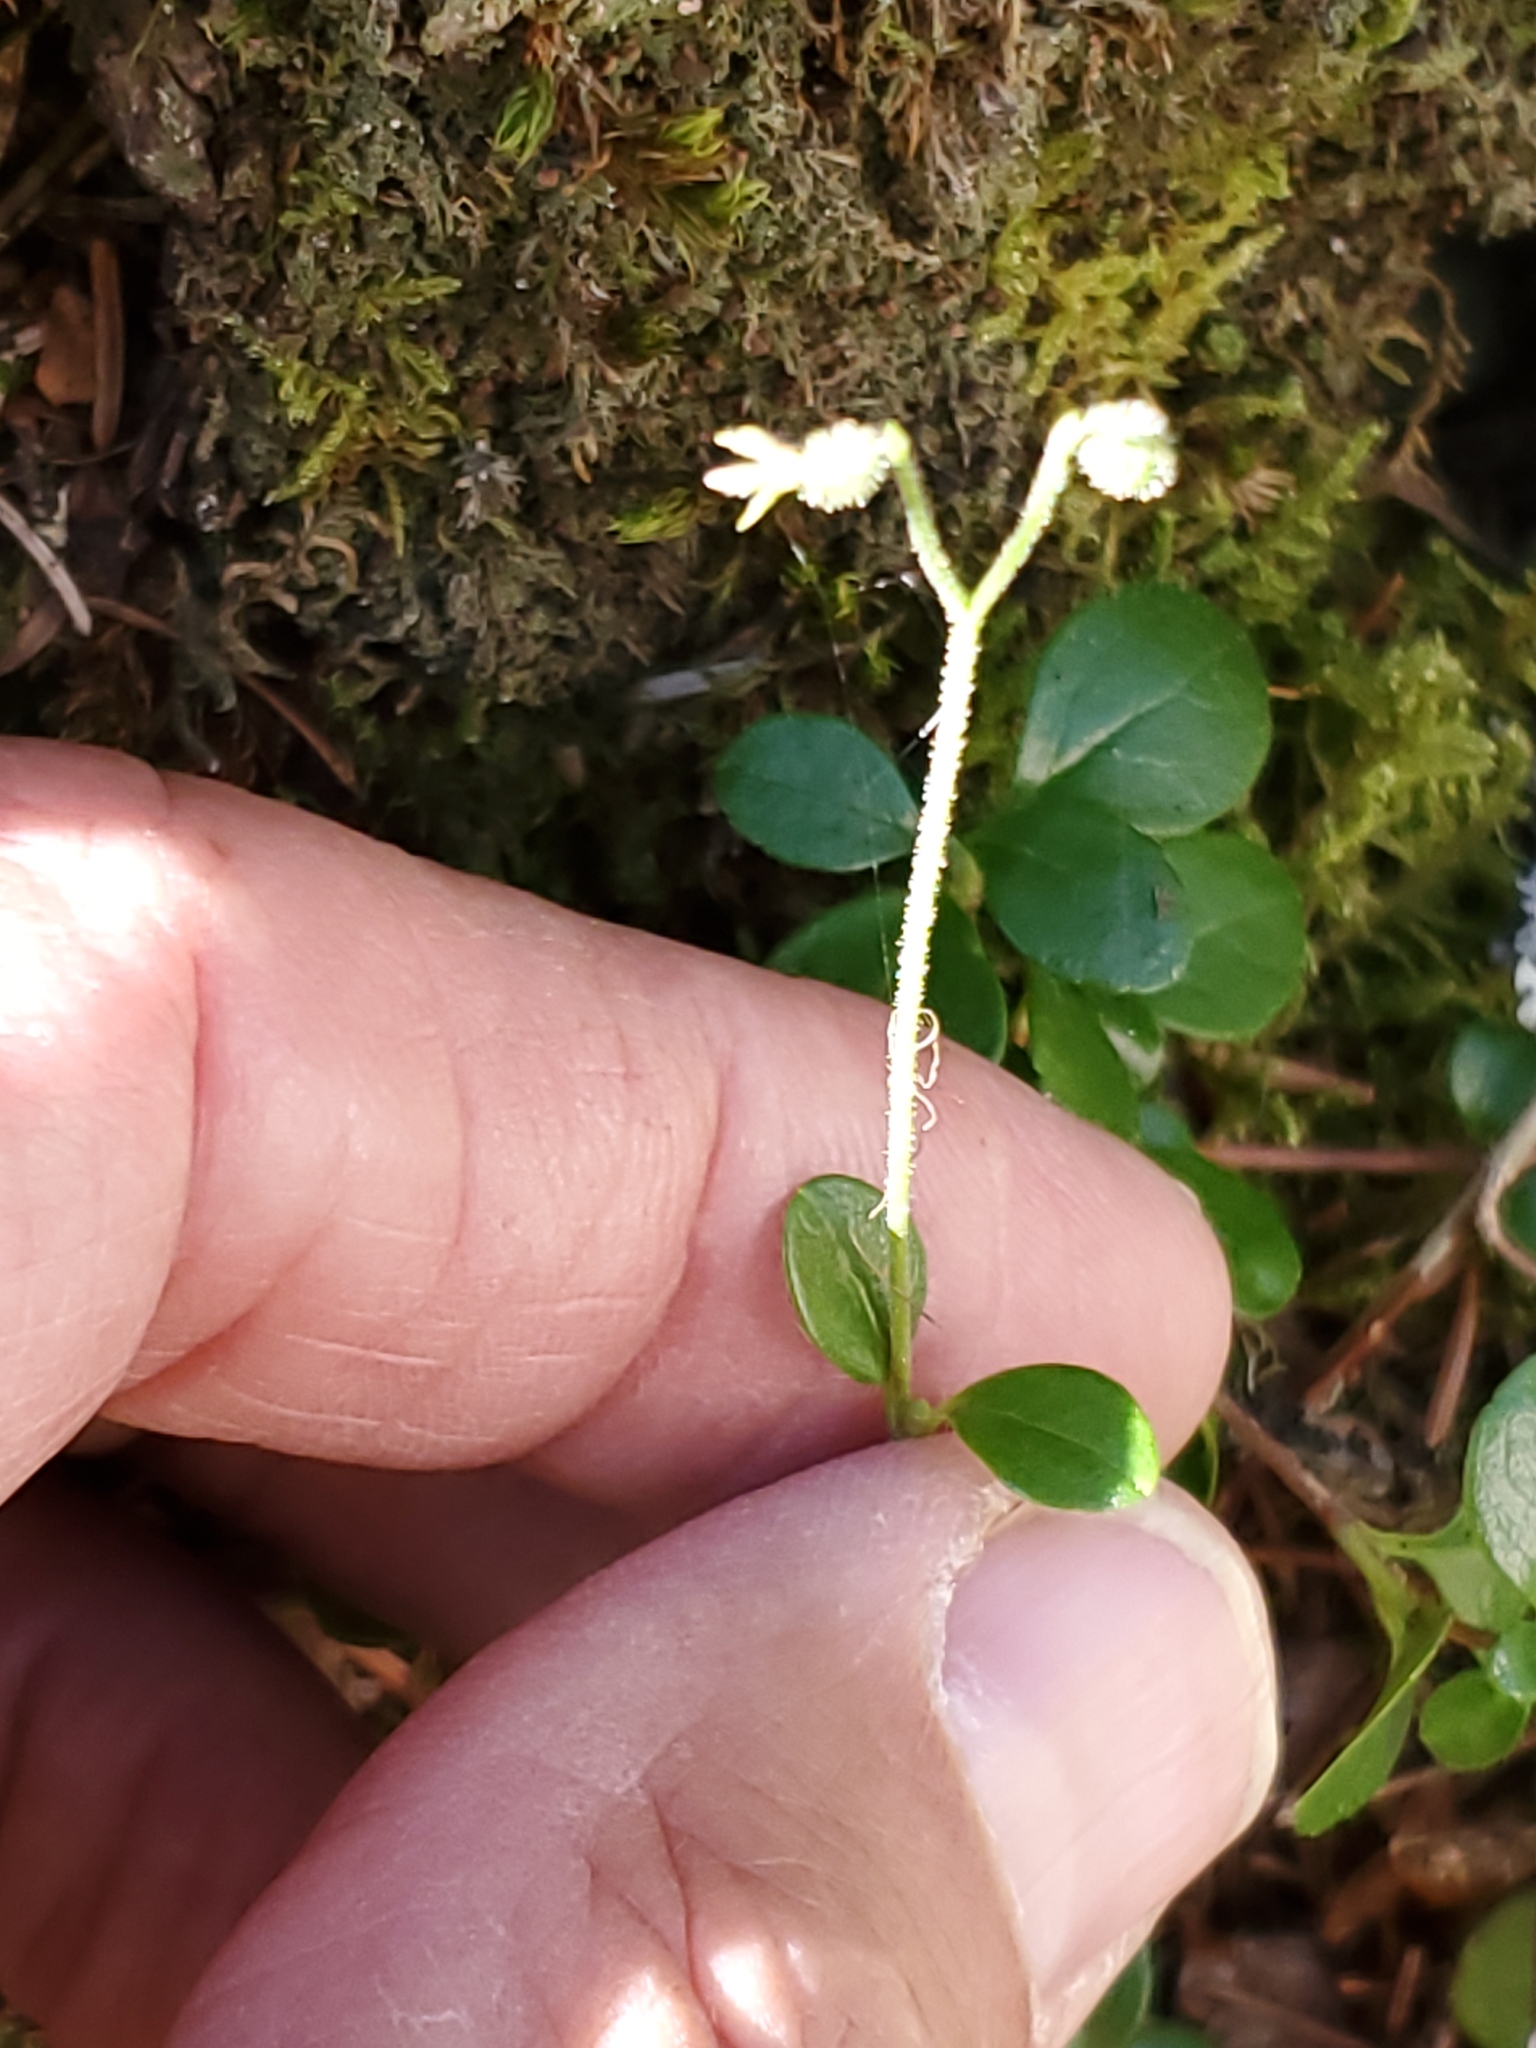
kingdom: Plantae
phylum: Tracheophyta
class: Magnoliopsida
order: Dipsacales
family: Caprifoliaceae
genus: Linnaea
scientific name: Linnaea borealis
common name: Twinflower
